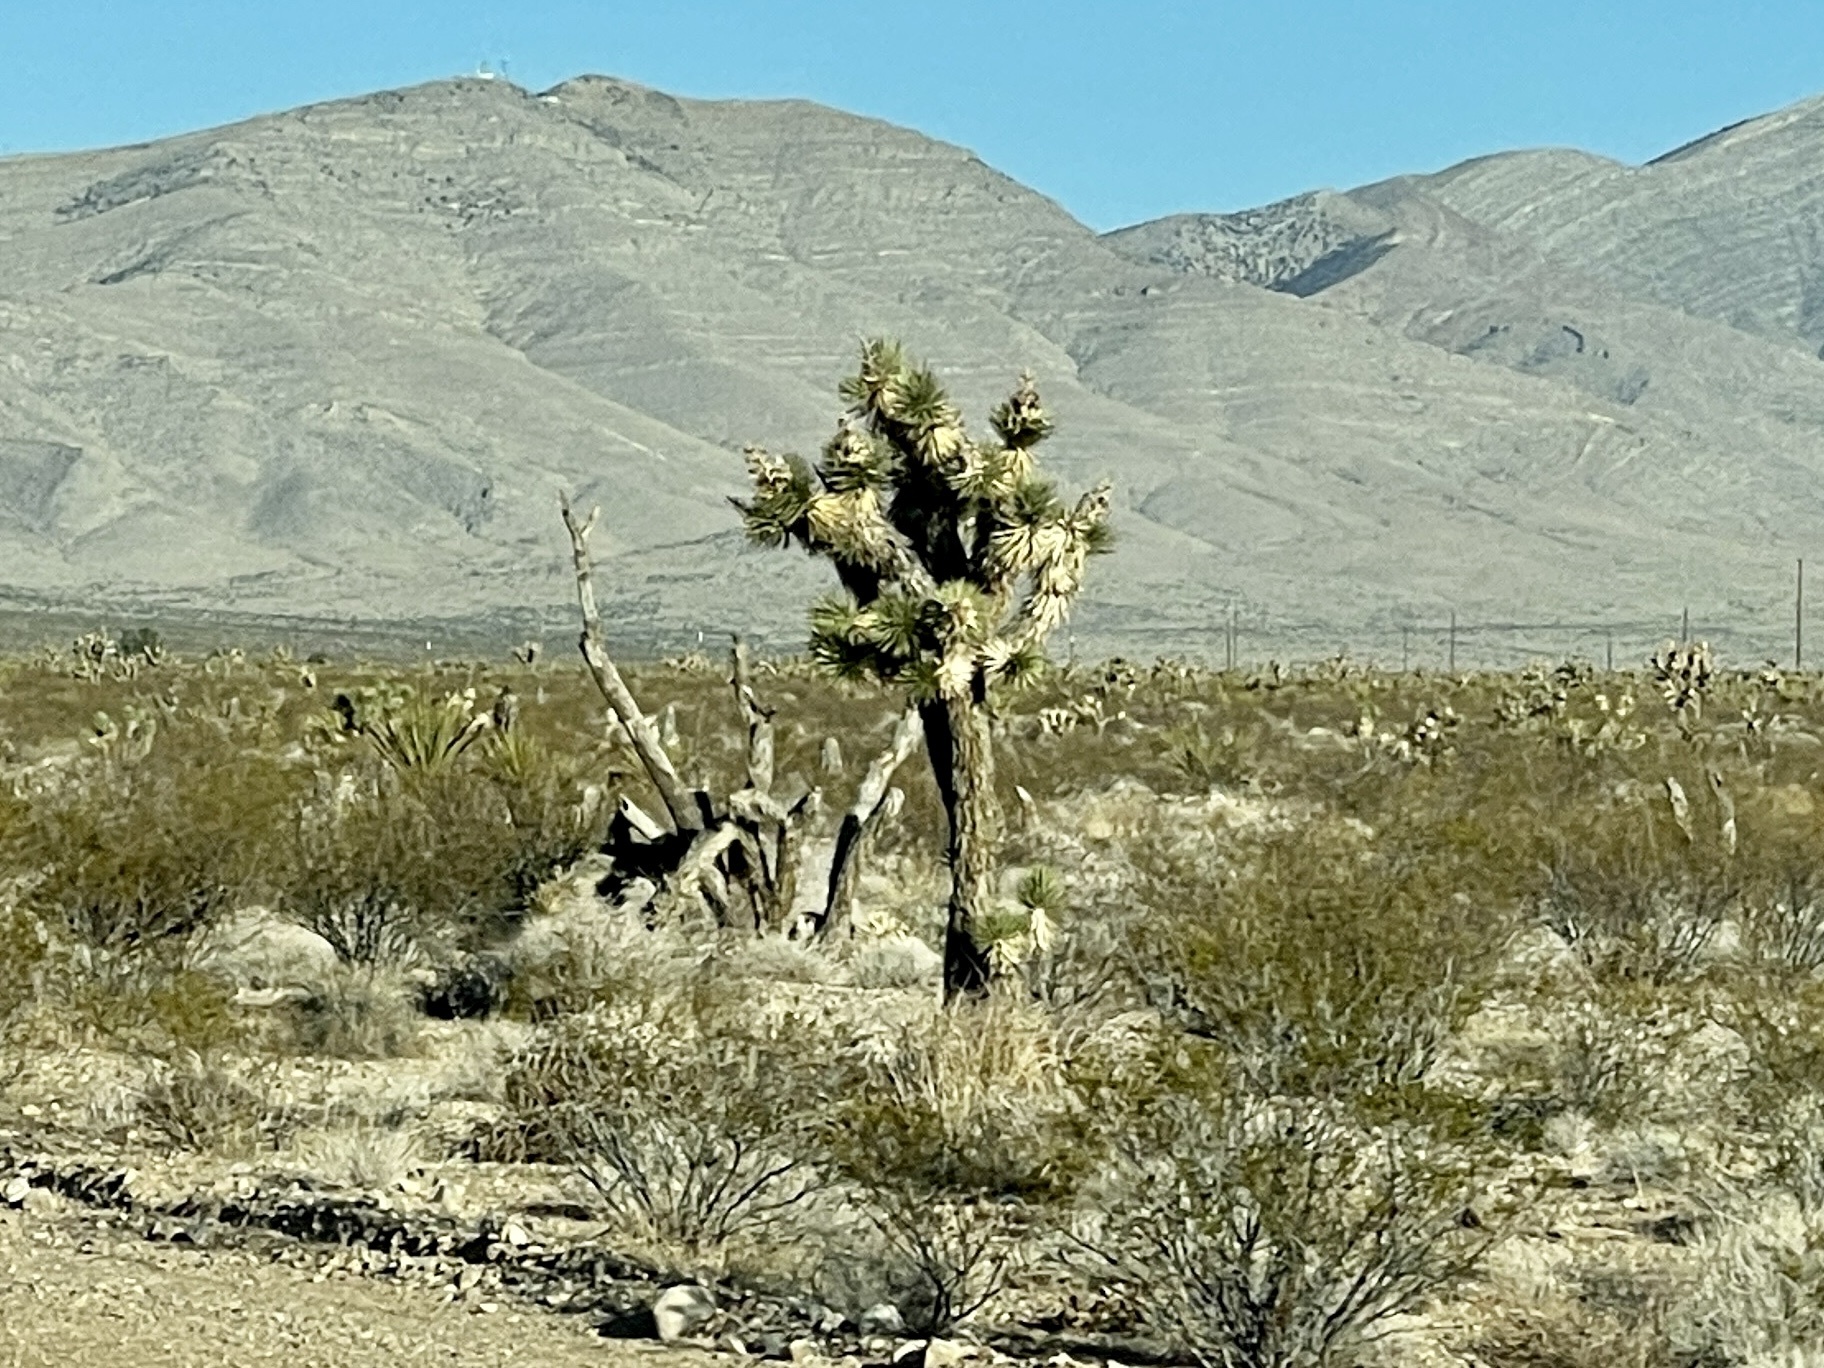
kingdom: Plantae
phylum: Tracheophyta
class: Liliopsida
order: Asparagales
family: Asparagaceae
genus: Yucca
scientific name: Yucca brevifolia
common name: Joshua tree
